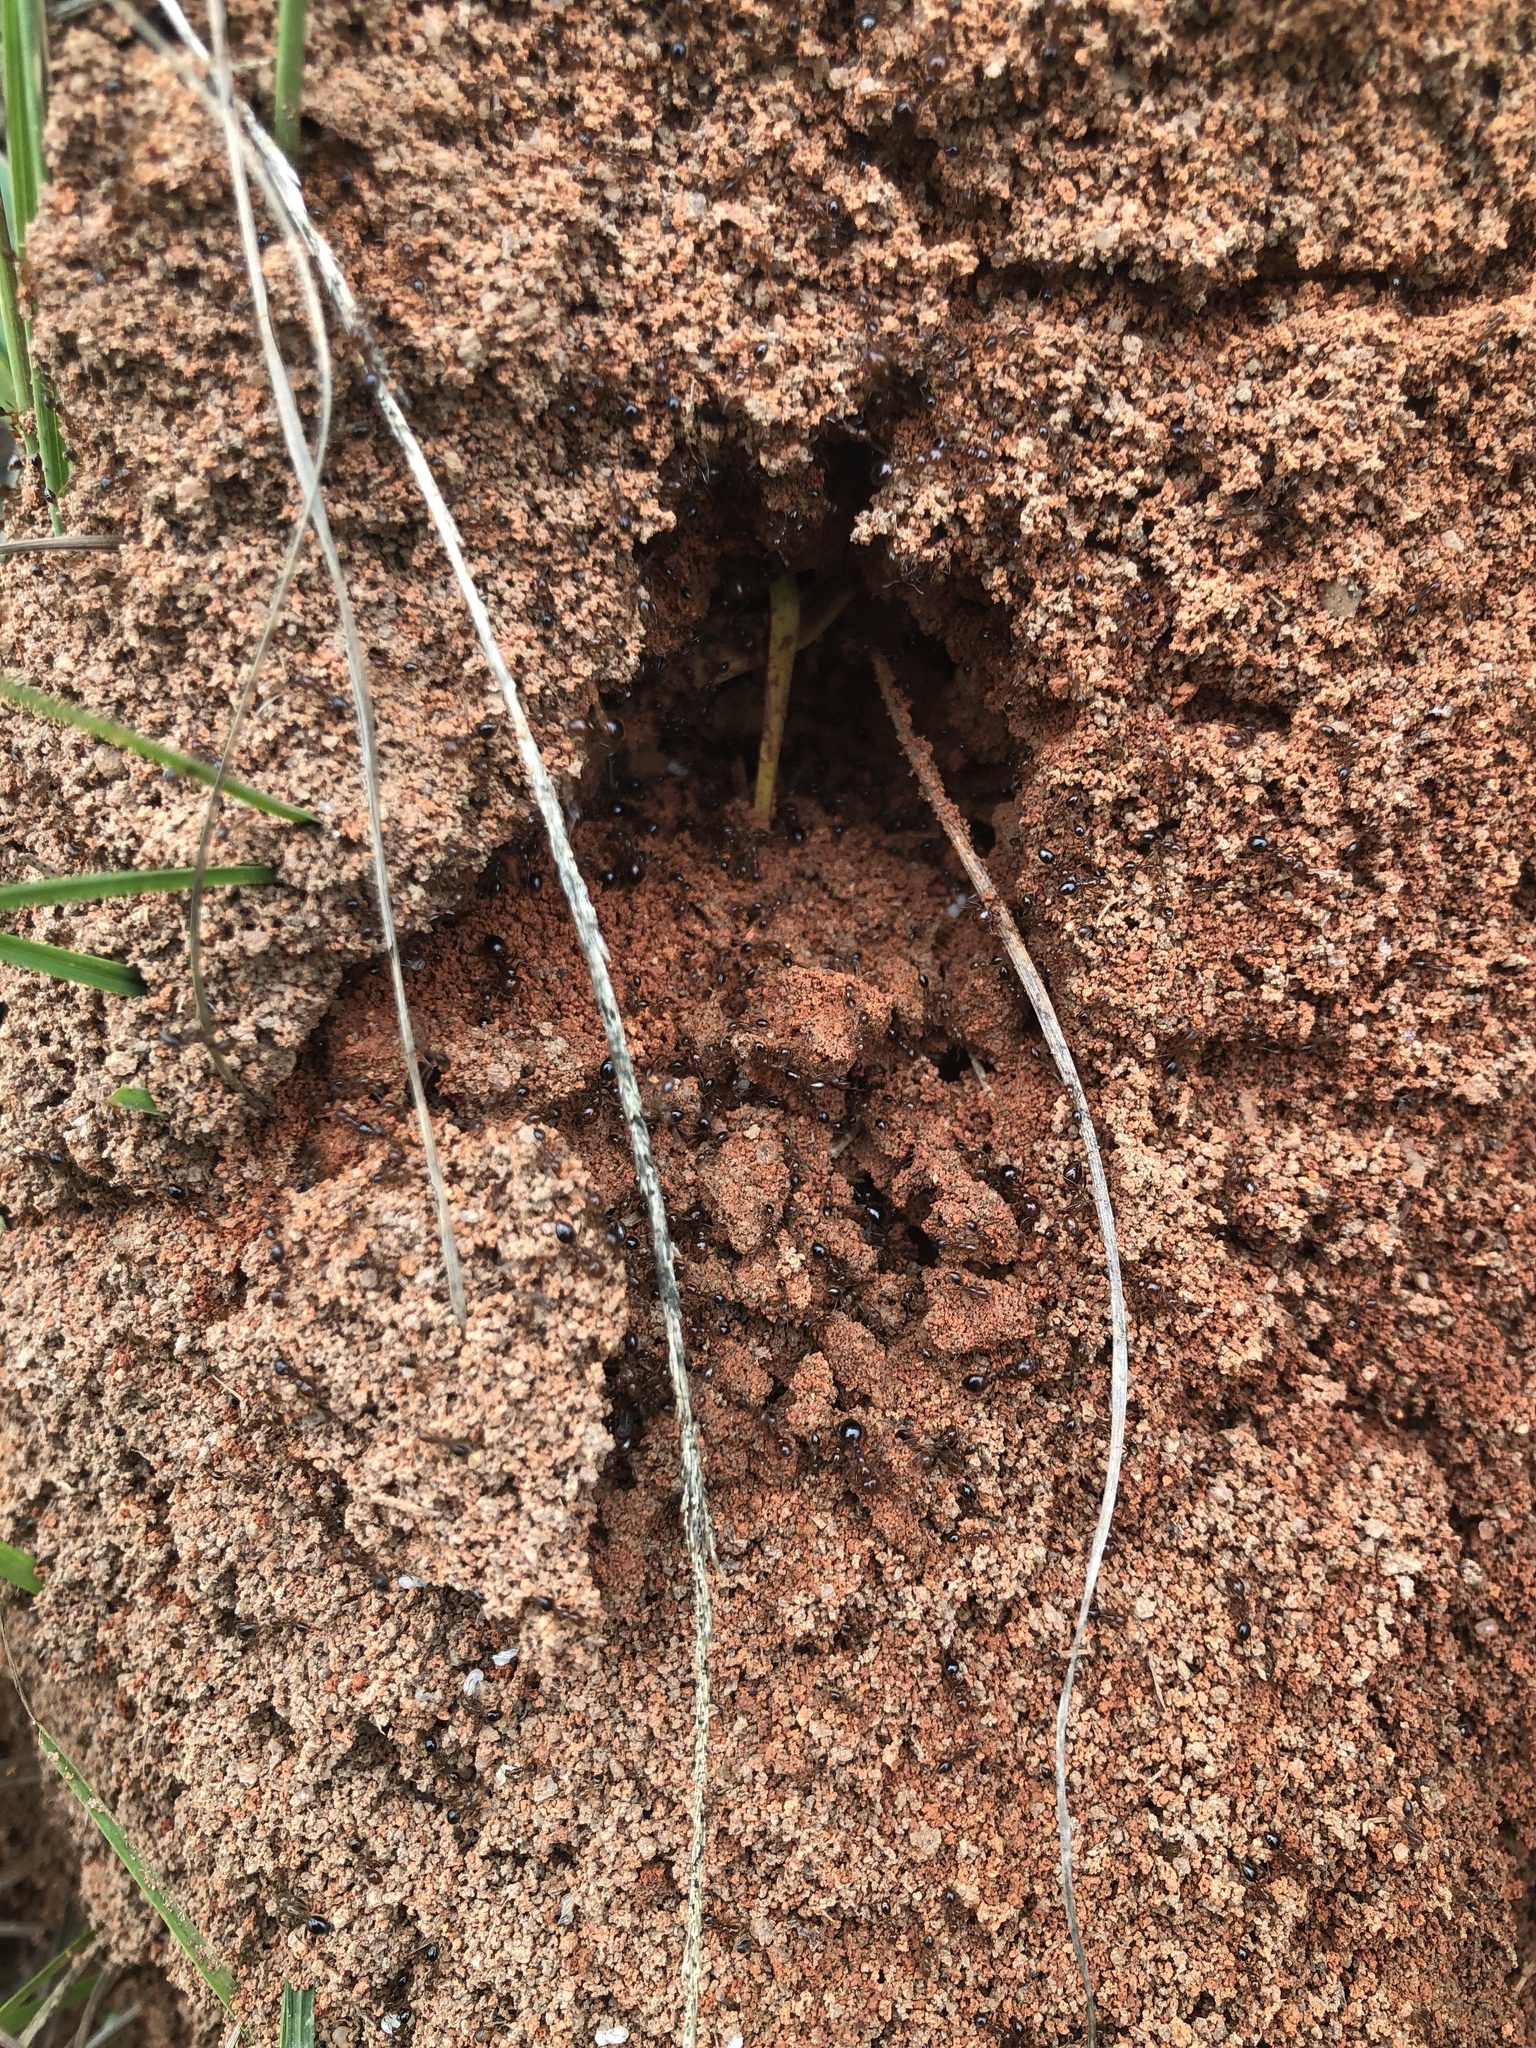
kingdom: Animalia
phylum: Arthropoda
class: Insecta
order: Hymenoptera
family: Formicidae
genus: Solenopsis
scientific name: Solenopsis invicta
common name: Red imported fire ant
